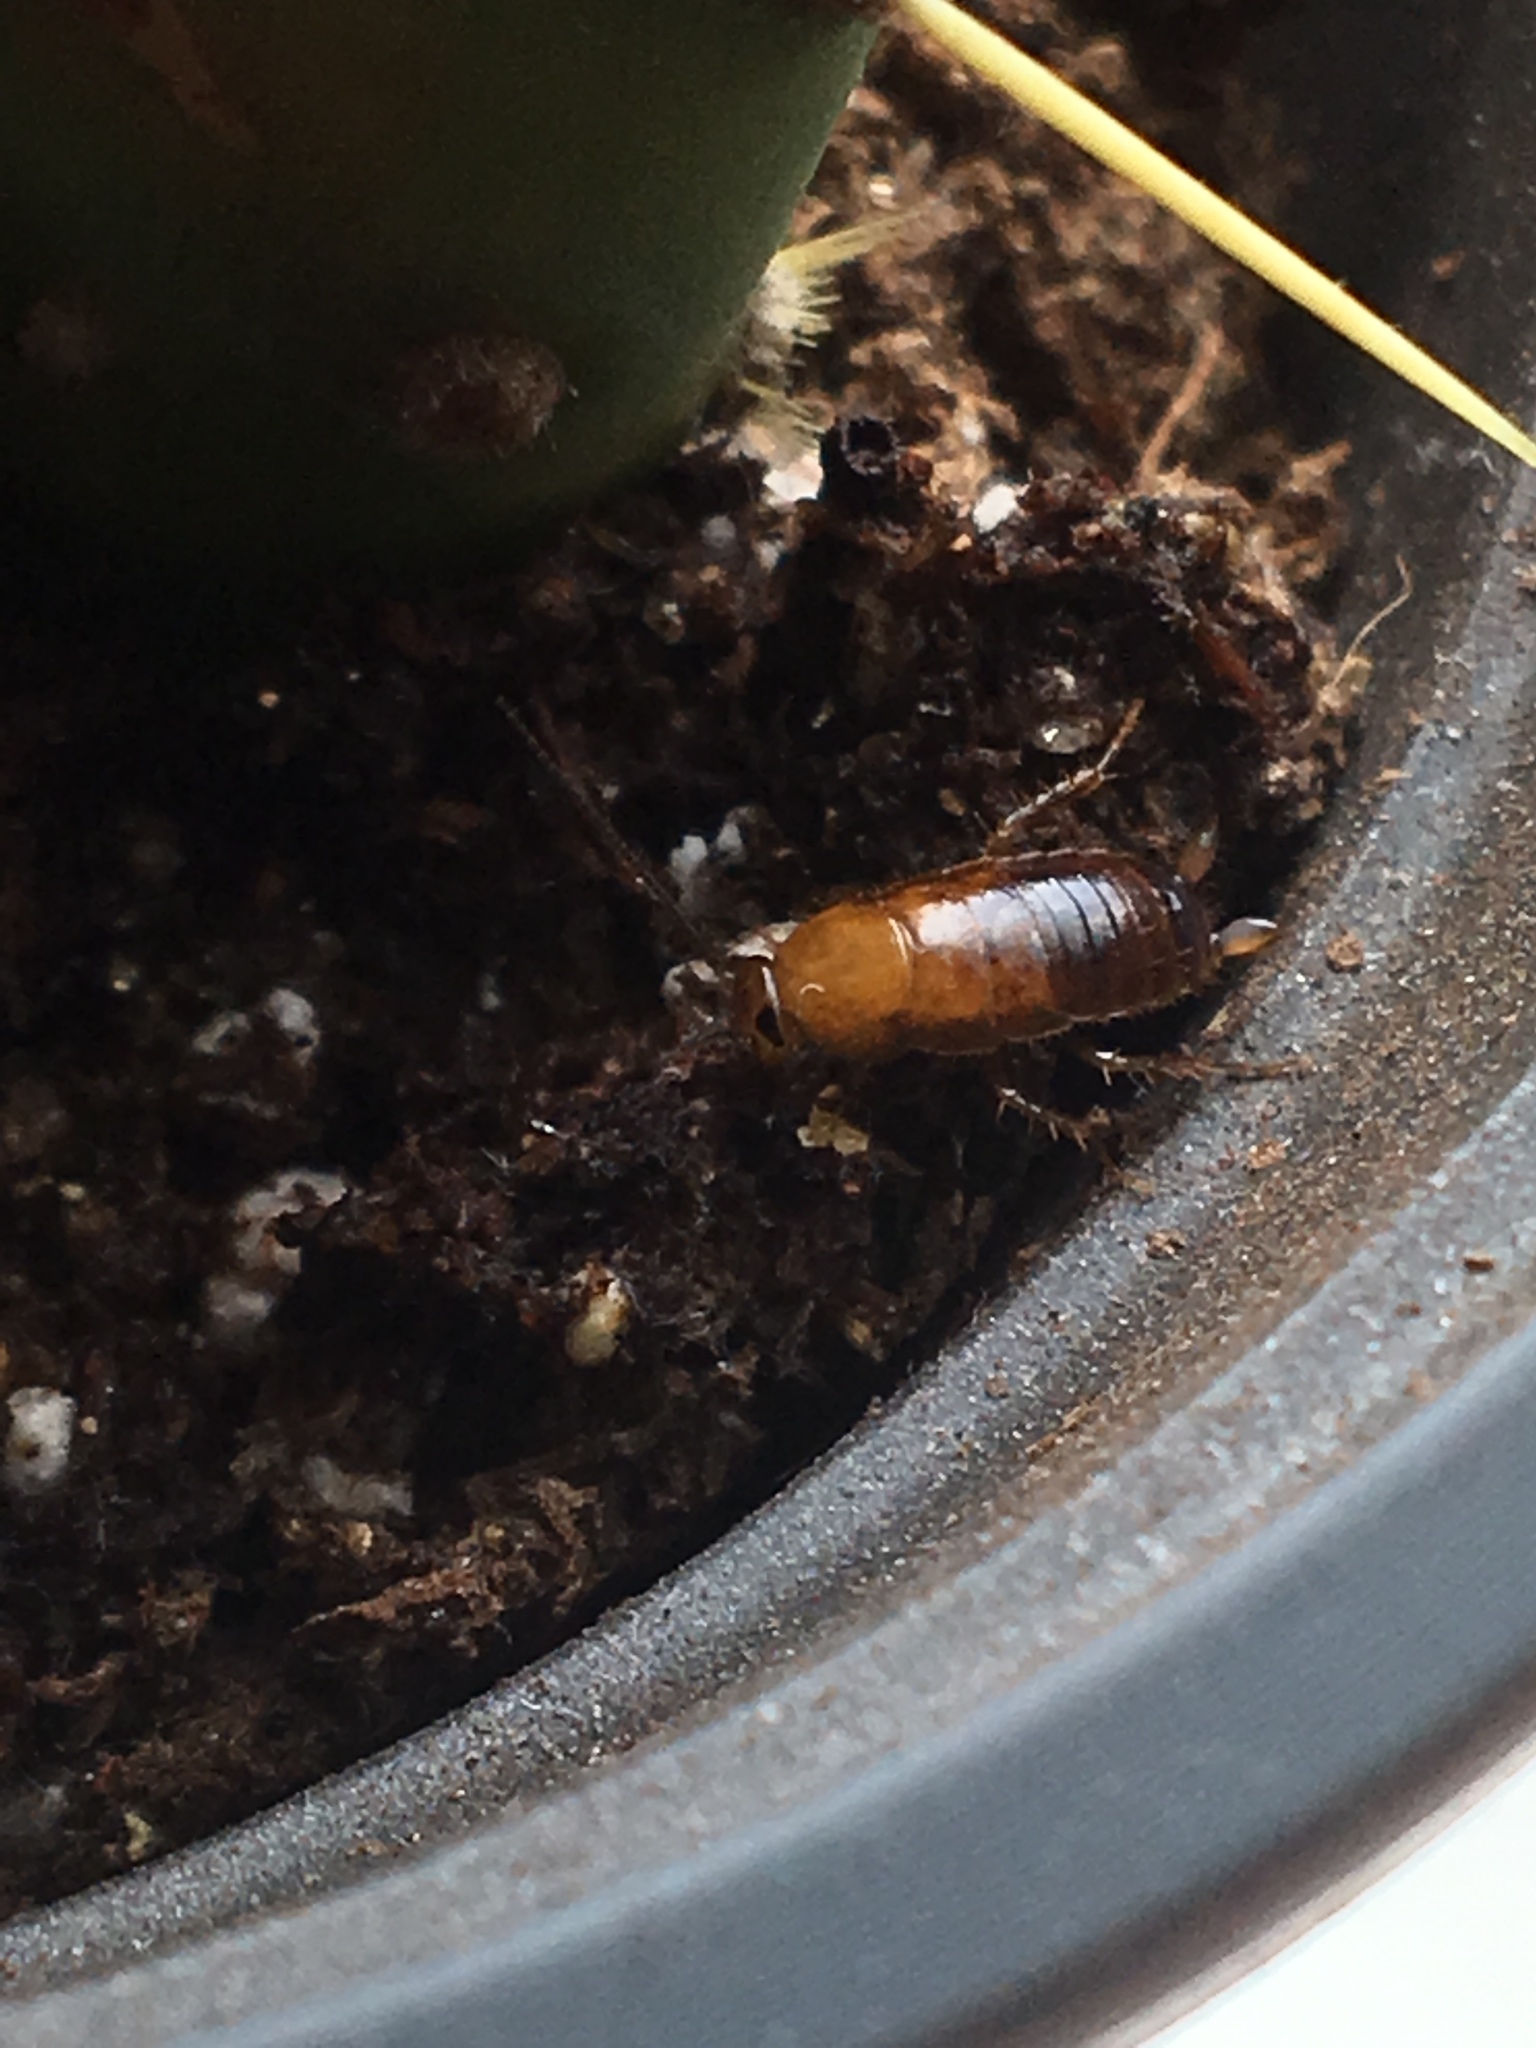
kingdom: Animalia
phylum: Arthropoda
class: Insecta
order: Blattodea
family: Ectobiidae
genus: Blattella
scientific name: Blattella germanica
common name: German cockroach
